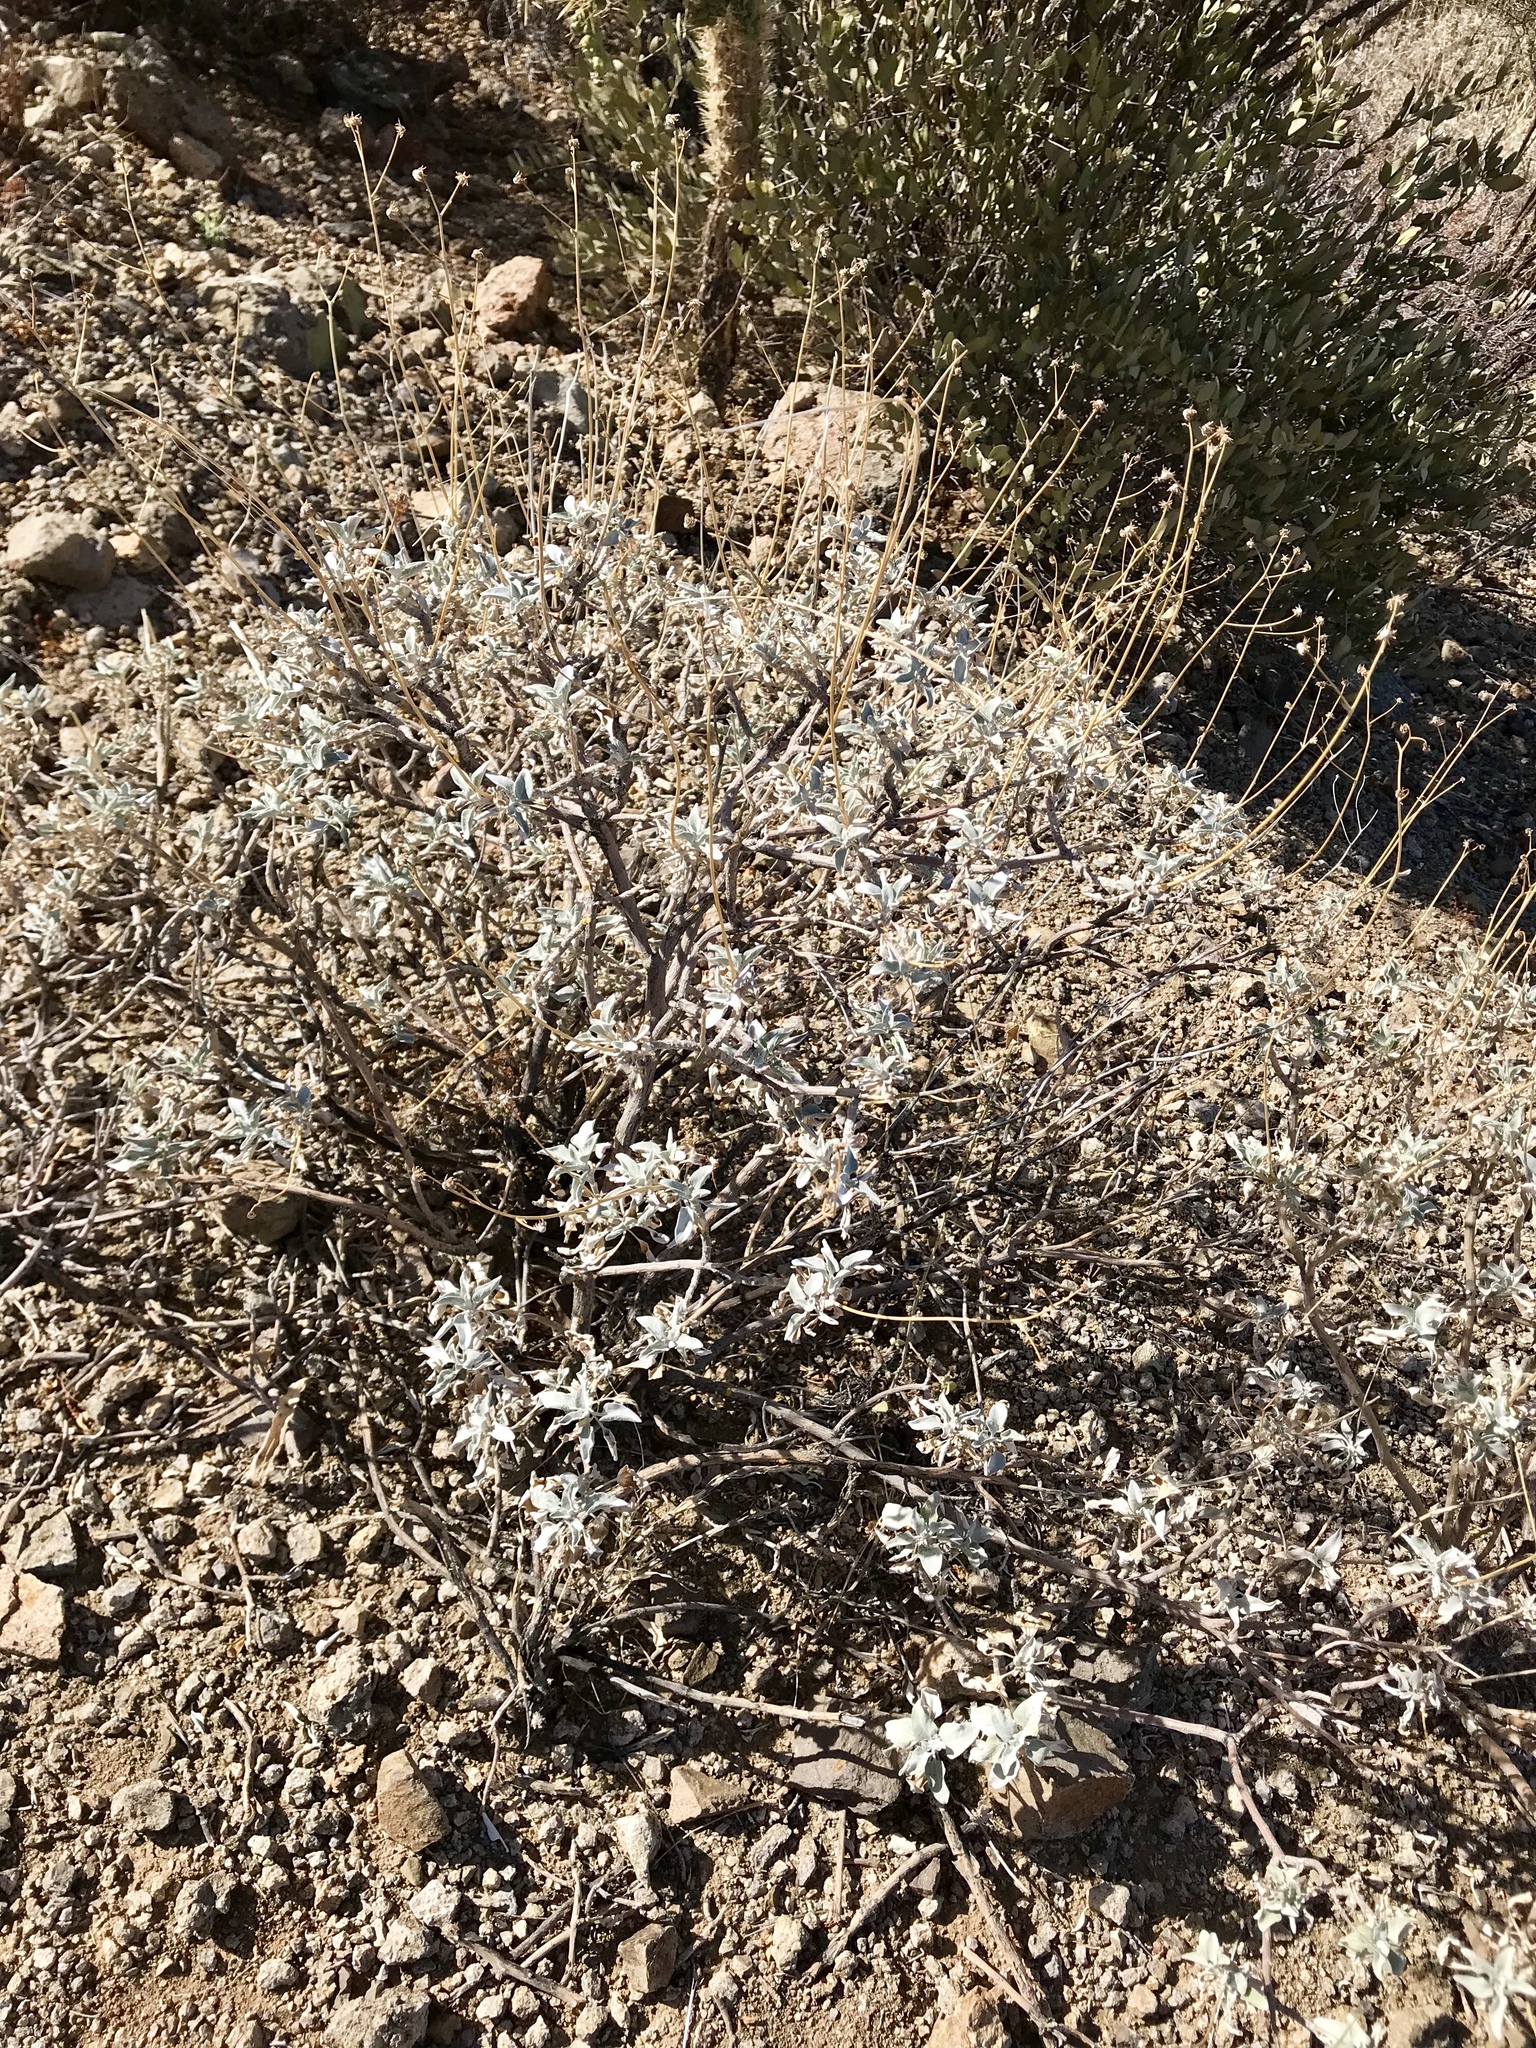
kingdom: Plantae
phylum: Tracheophyta
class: Magnoliopsida
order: Asterales
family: Asteraceae
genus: Encelia
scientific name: Encelia farinosa
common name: Brittlebush
